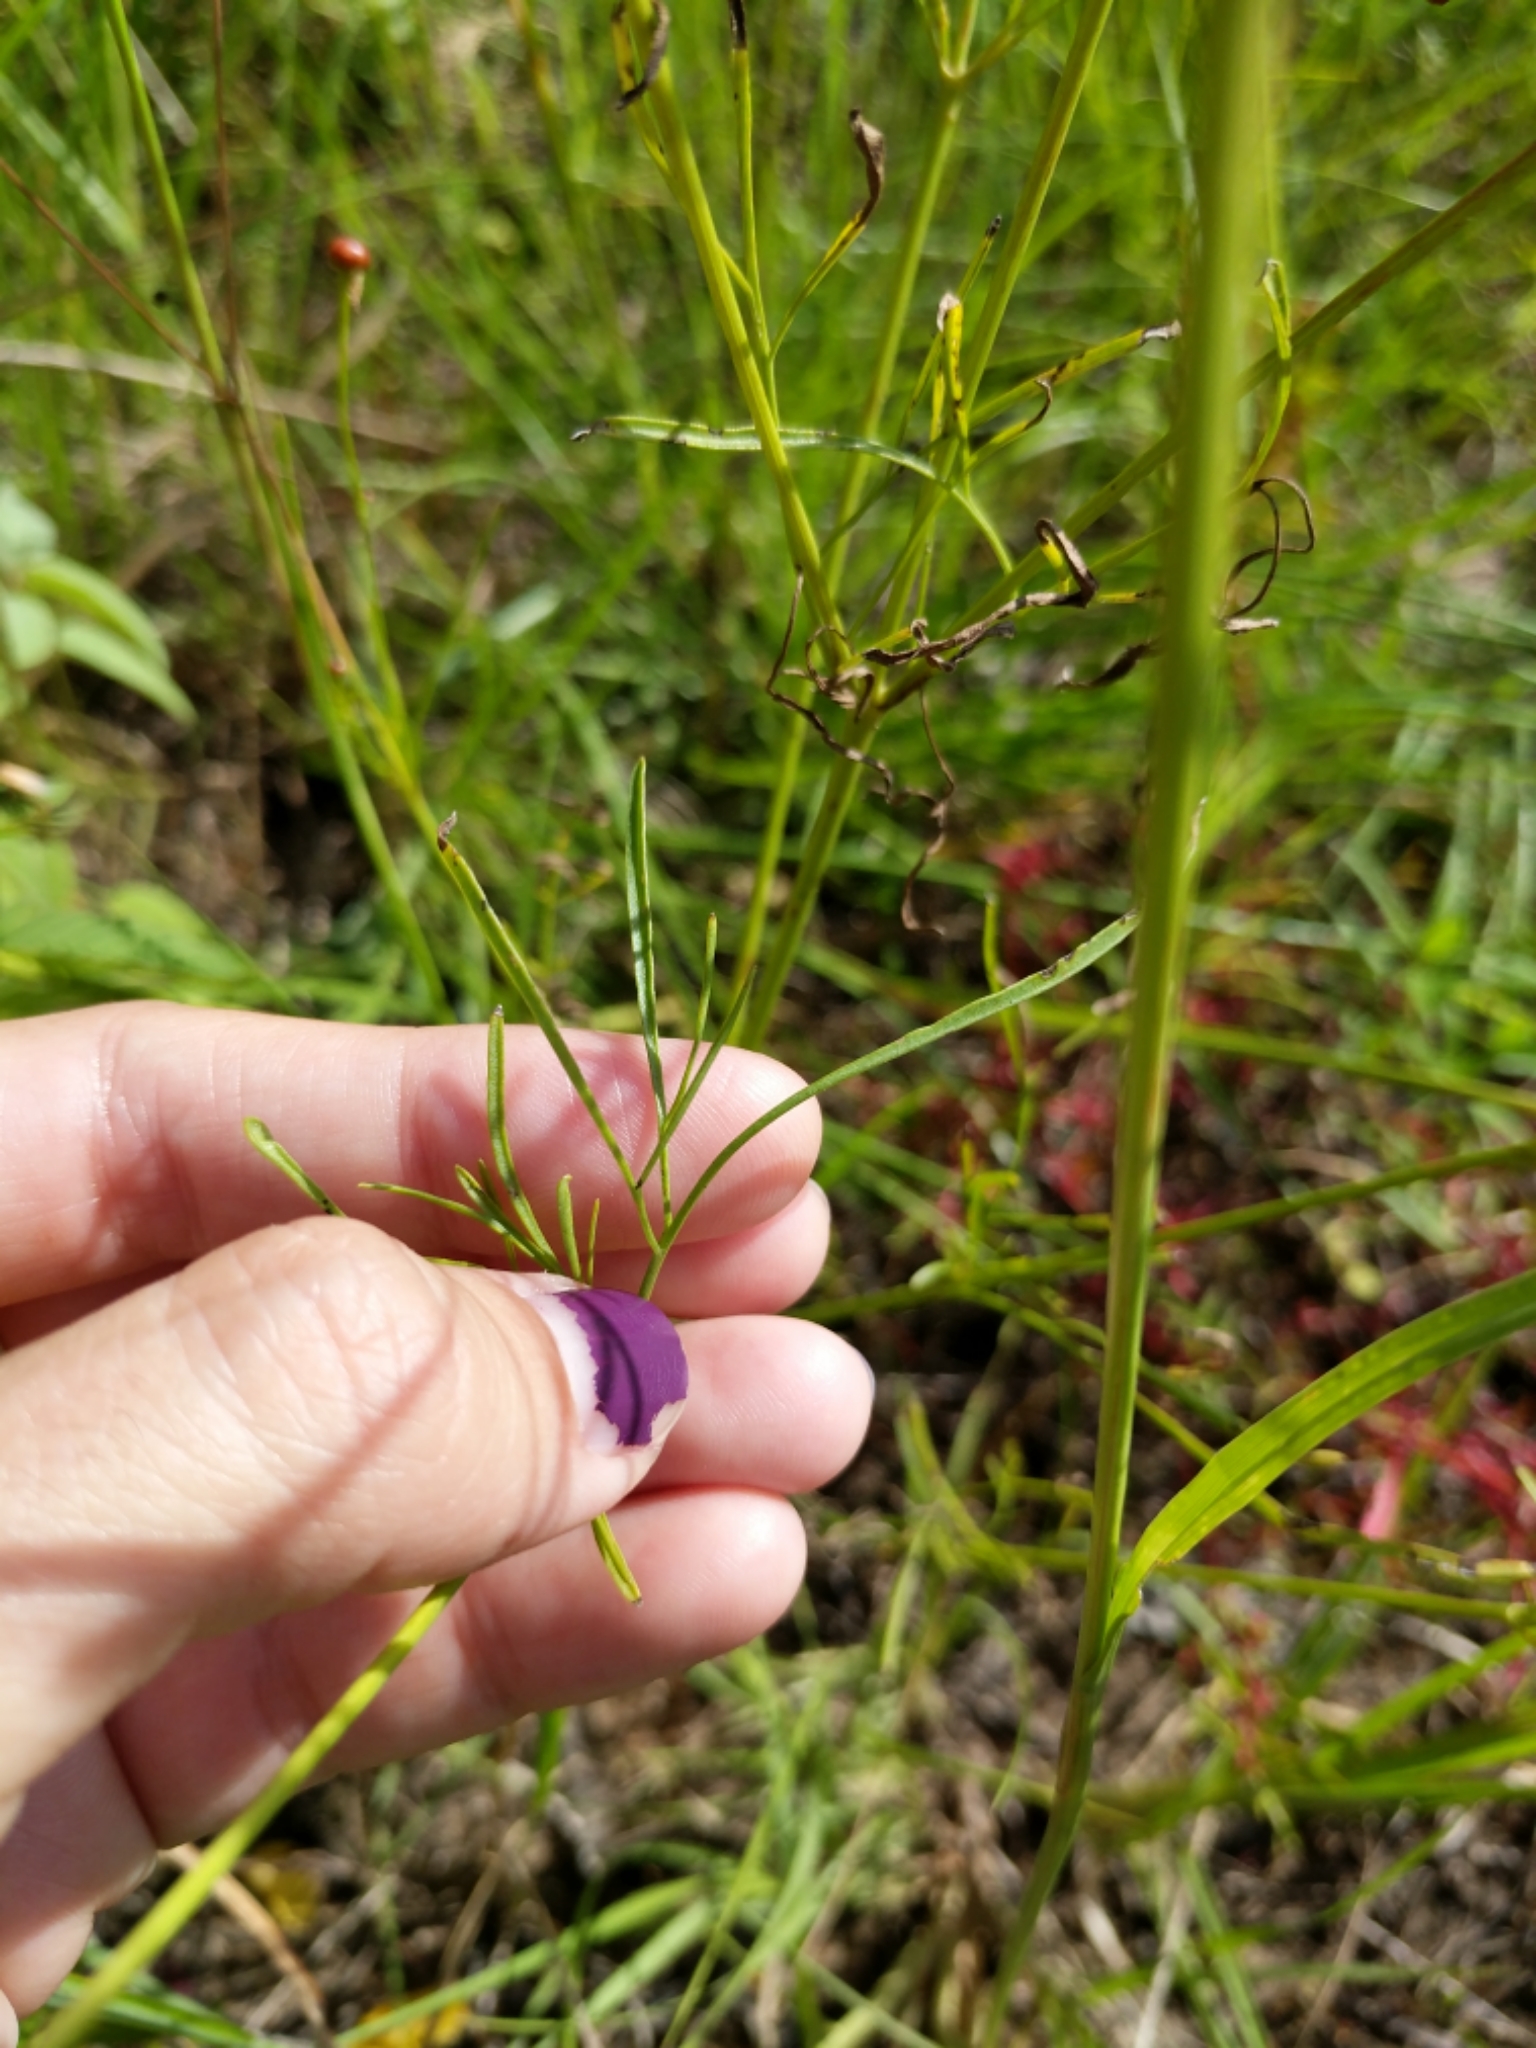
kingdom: Plantae
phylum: Tracheophyta
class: Magnoliopsida
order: Asterales
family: Asteraceae
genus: Coreopsis
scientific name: Coreopsis tinctoria
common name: Garden tickseed
